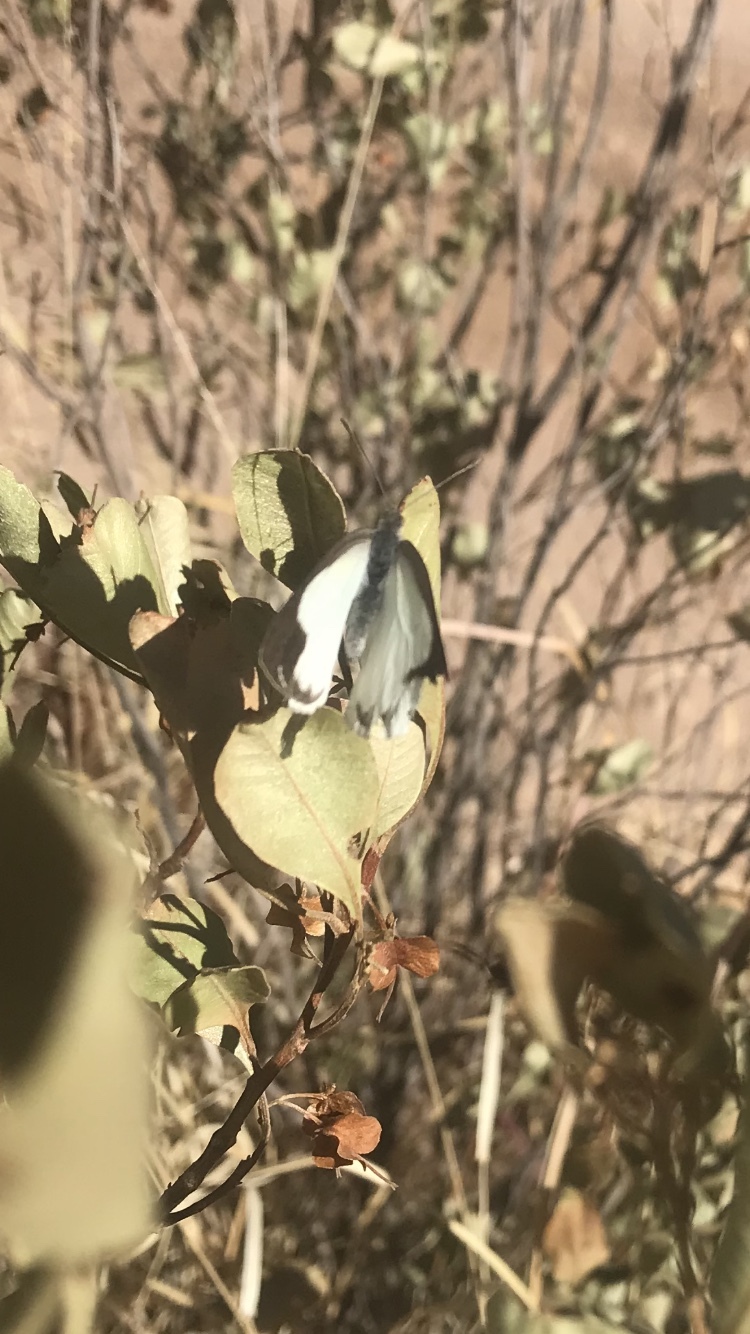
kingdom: Animalia
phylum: Arthropoda
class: Insecta
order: Lepidoptera
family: Pieridae
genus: Elodina
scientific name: Elodina padusa
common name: Narrow-winge pearl white
